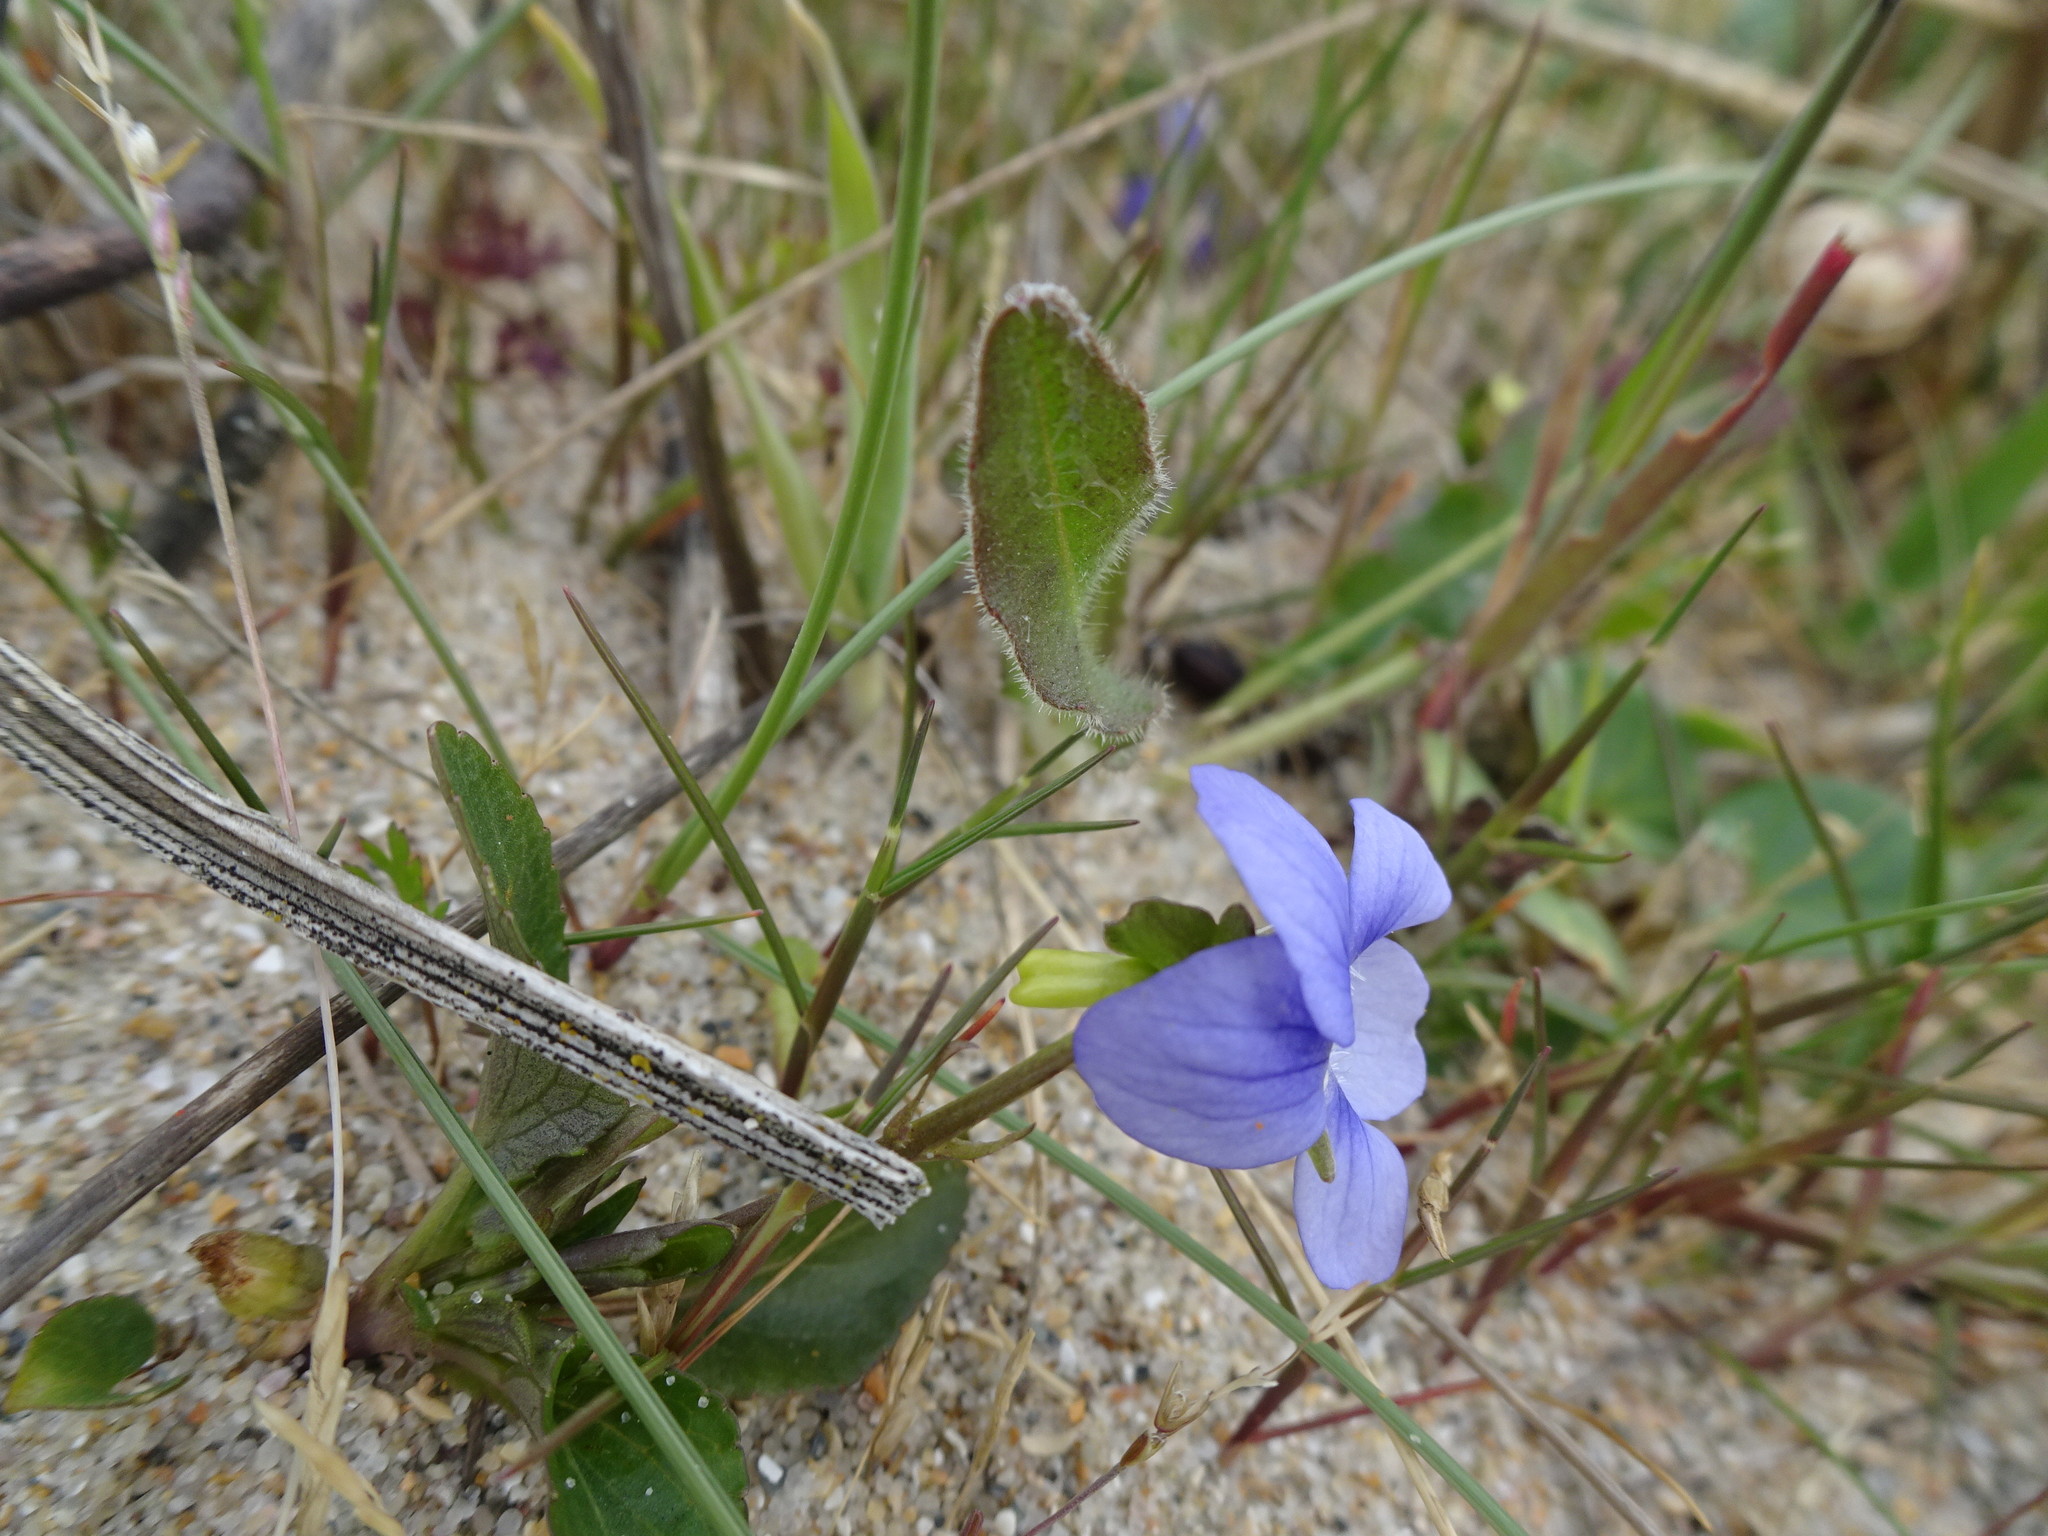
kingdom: Plantae
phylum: Tracheophyta
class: Magnoliopsida
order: Malpighiales
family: Violaceae
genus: Viola
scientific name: Viola canina
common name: Heath dog-violet
